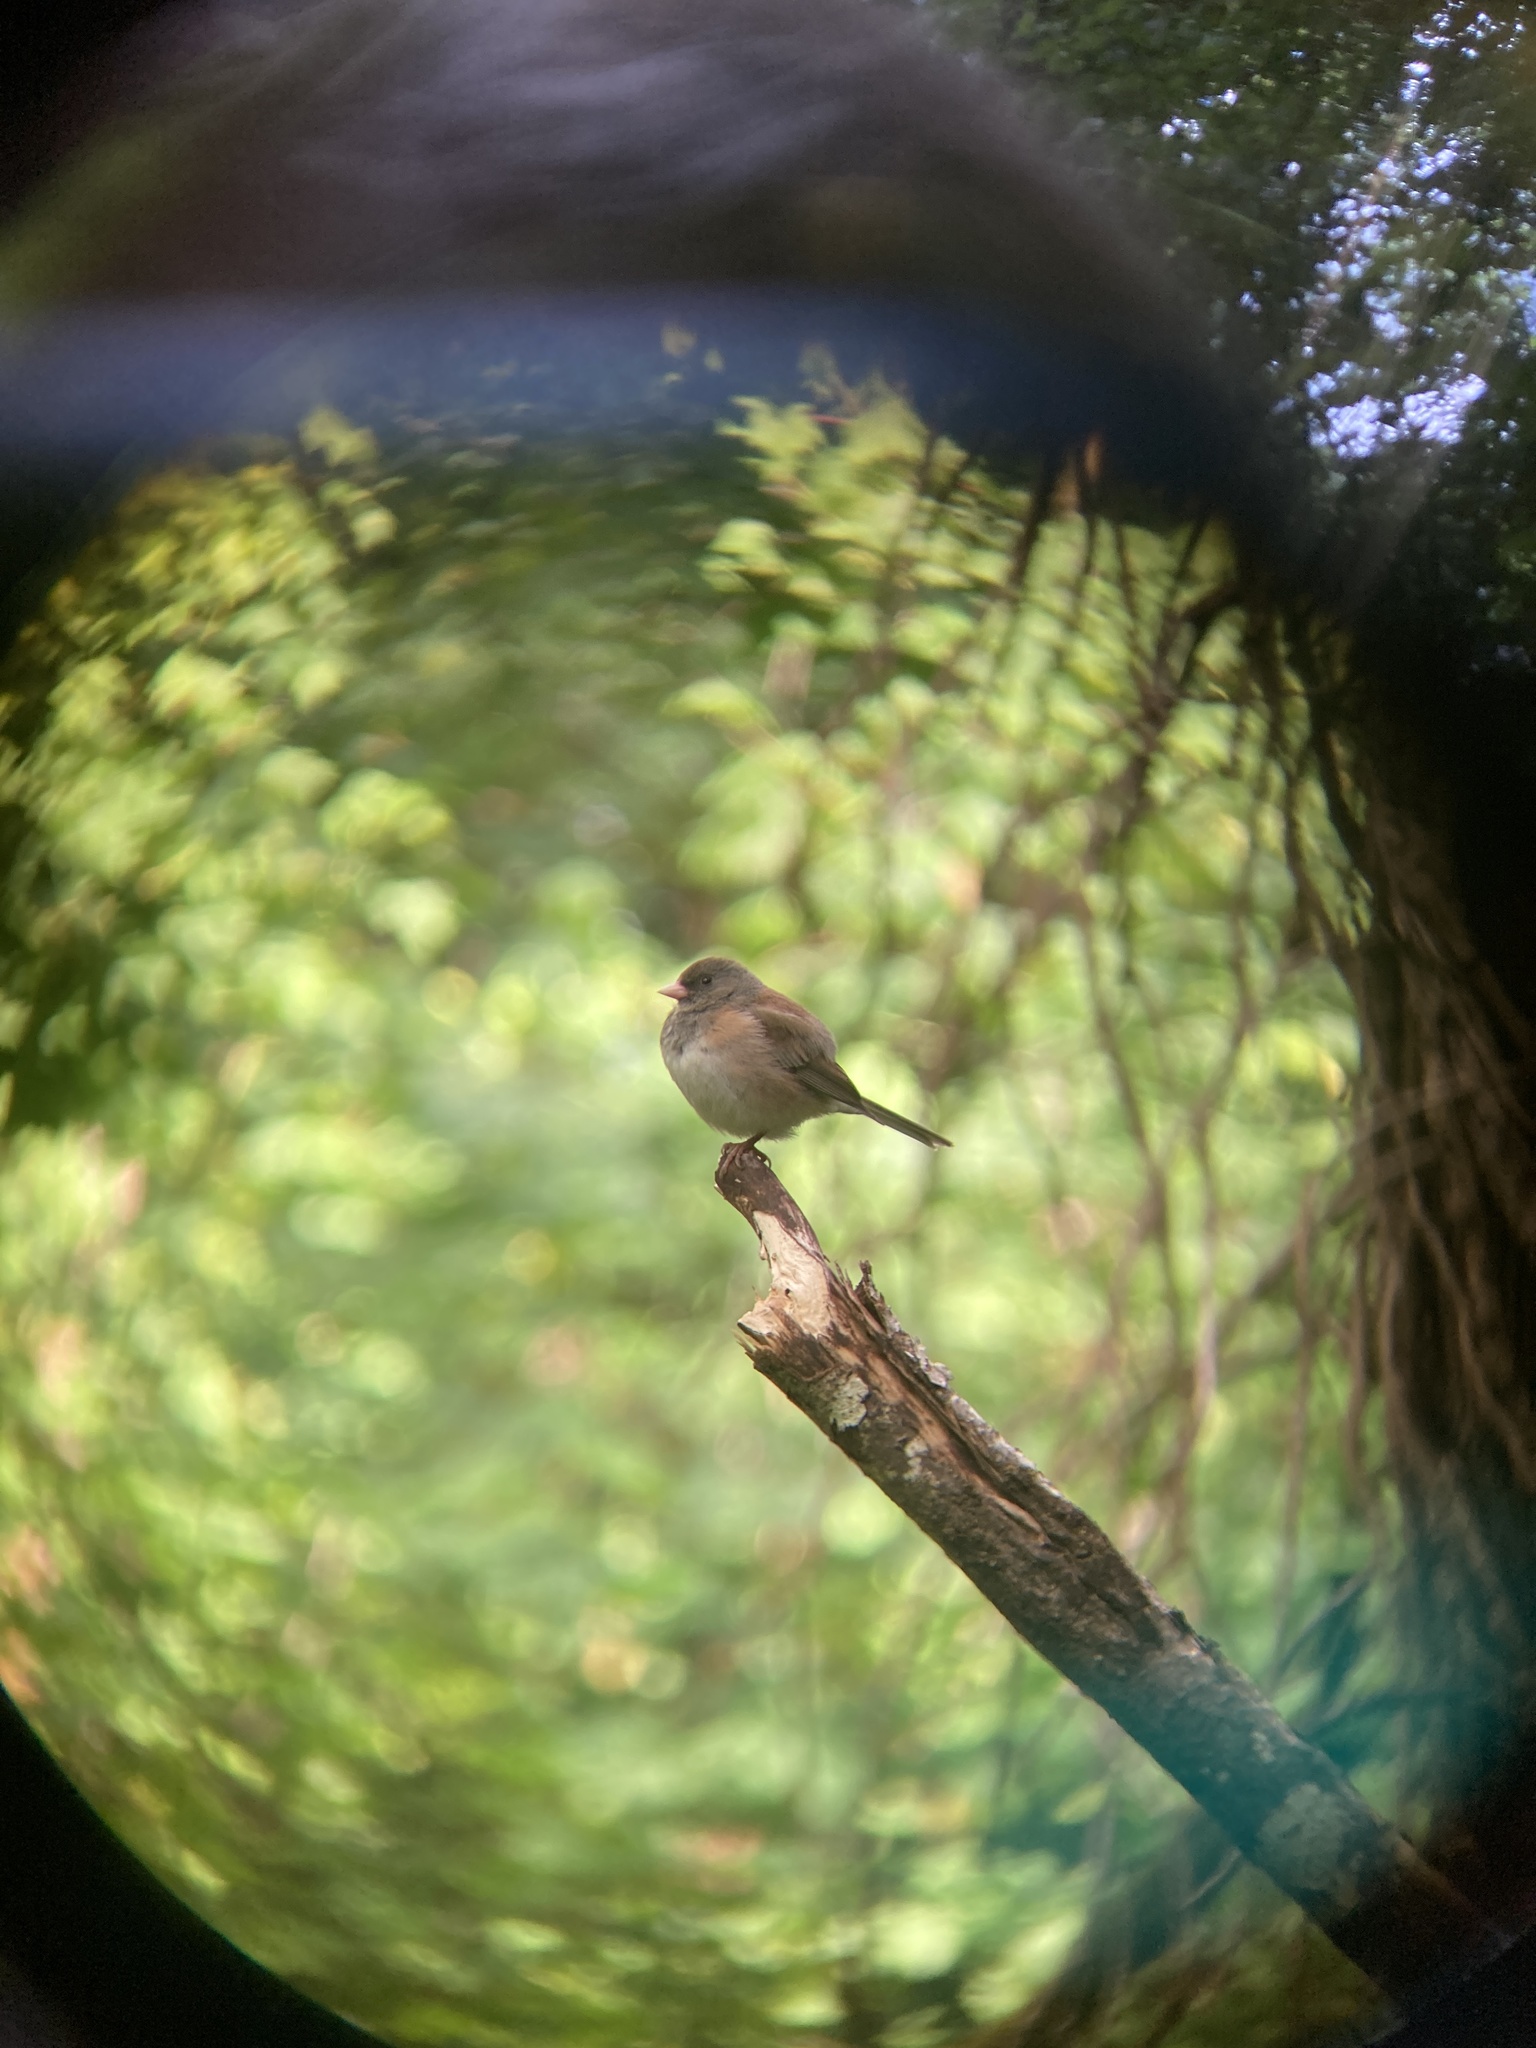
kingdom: Animalia
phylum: Chordata
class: Aves
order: Passeriformes
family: Passerellidae
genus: Junco
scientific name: Junco hyemalis
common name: Dark-eyed junco
